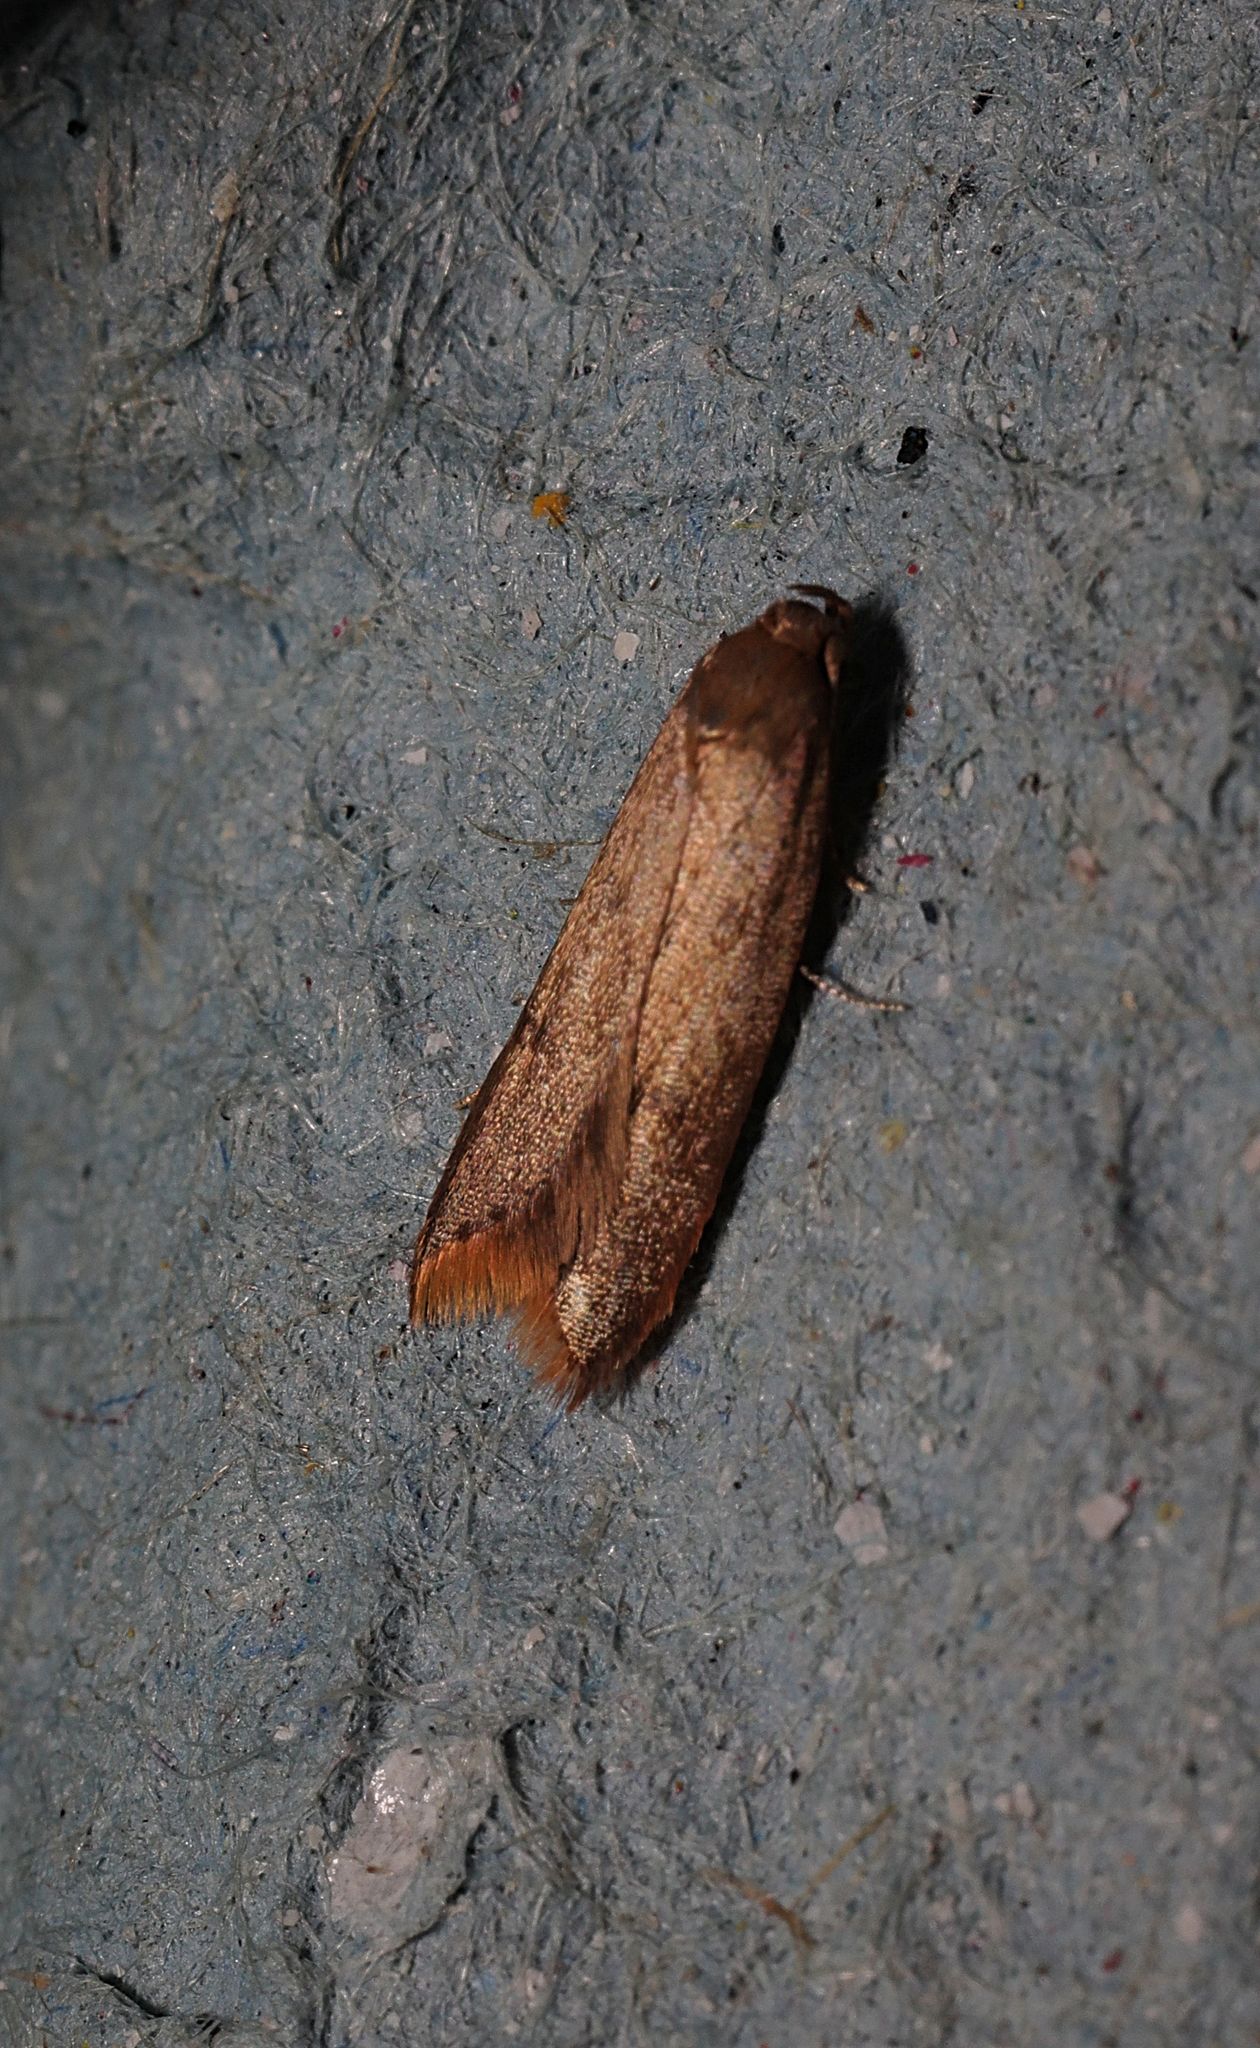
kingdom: Animalia
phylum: Arthropoda
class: Insecta
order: Lepidoptera
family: Oecophoridae
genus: Tachystola
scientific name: Tachystola acroxantha
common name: Ruddy streak
